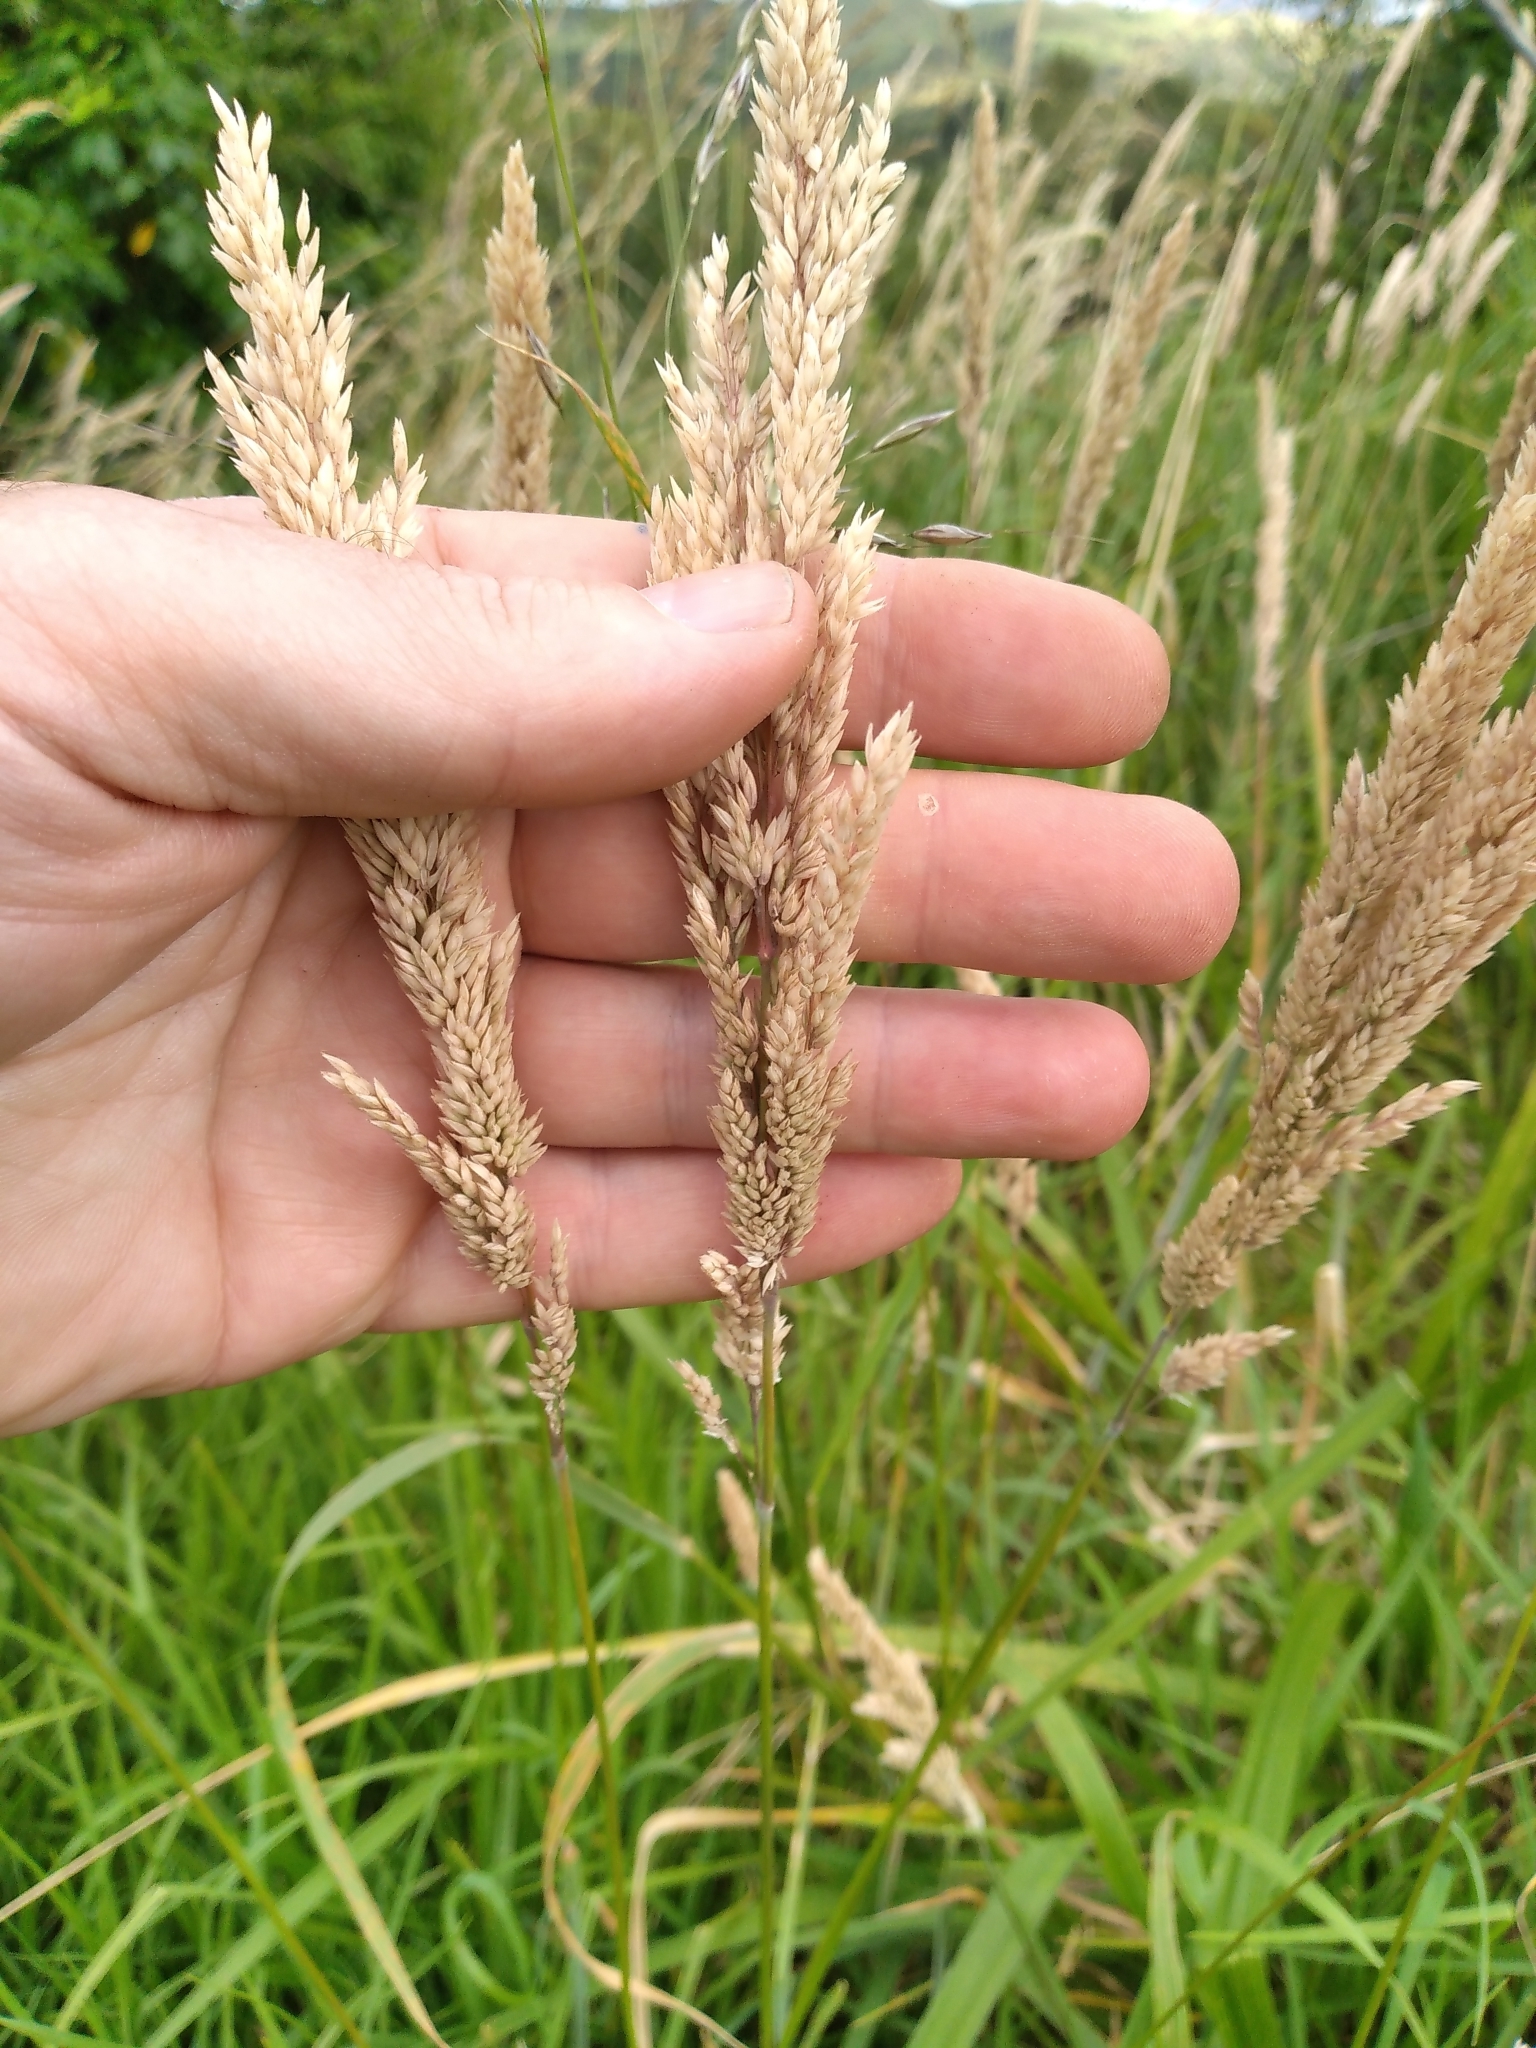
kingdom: Plantae
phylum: Tracheophyta
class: Liliopsida
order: Poales
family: Poaceae
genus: Holcus
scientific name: Holcus lanatus
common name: Yorkshire-fog
